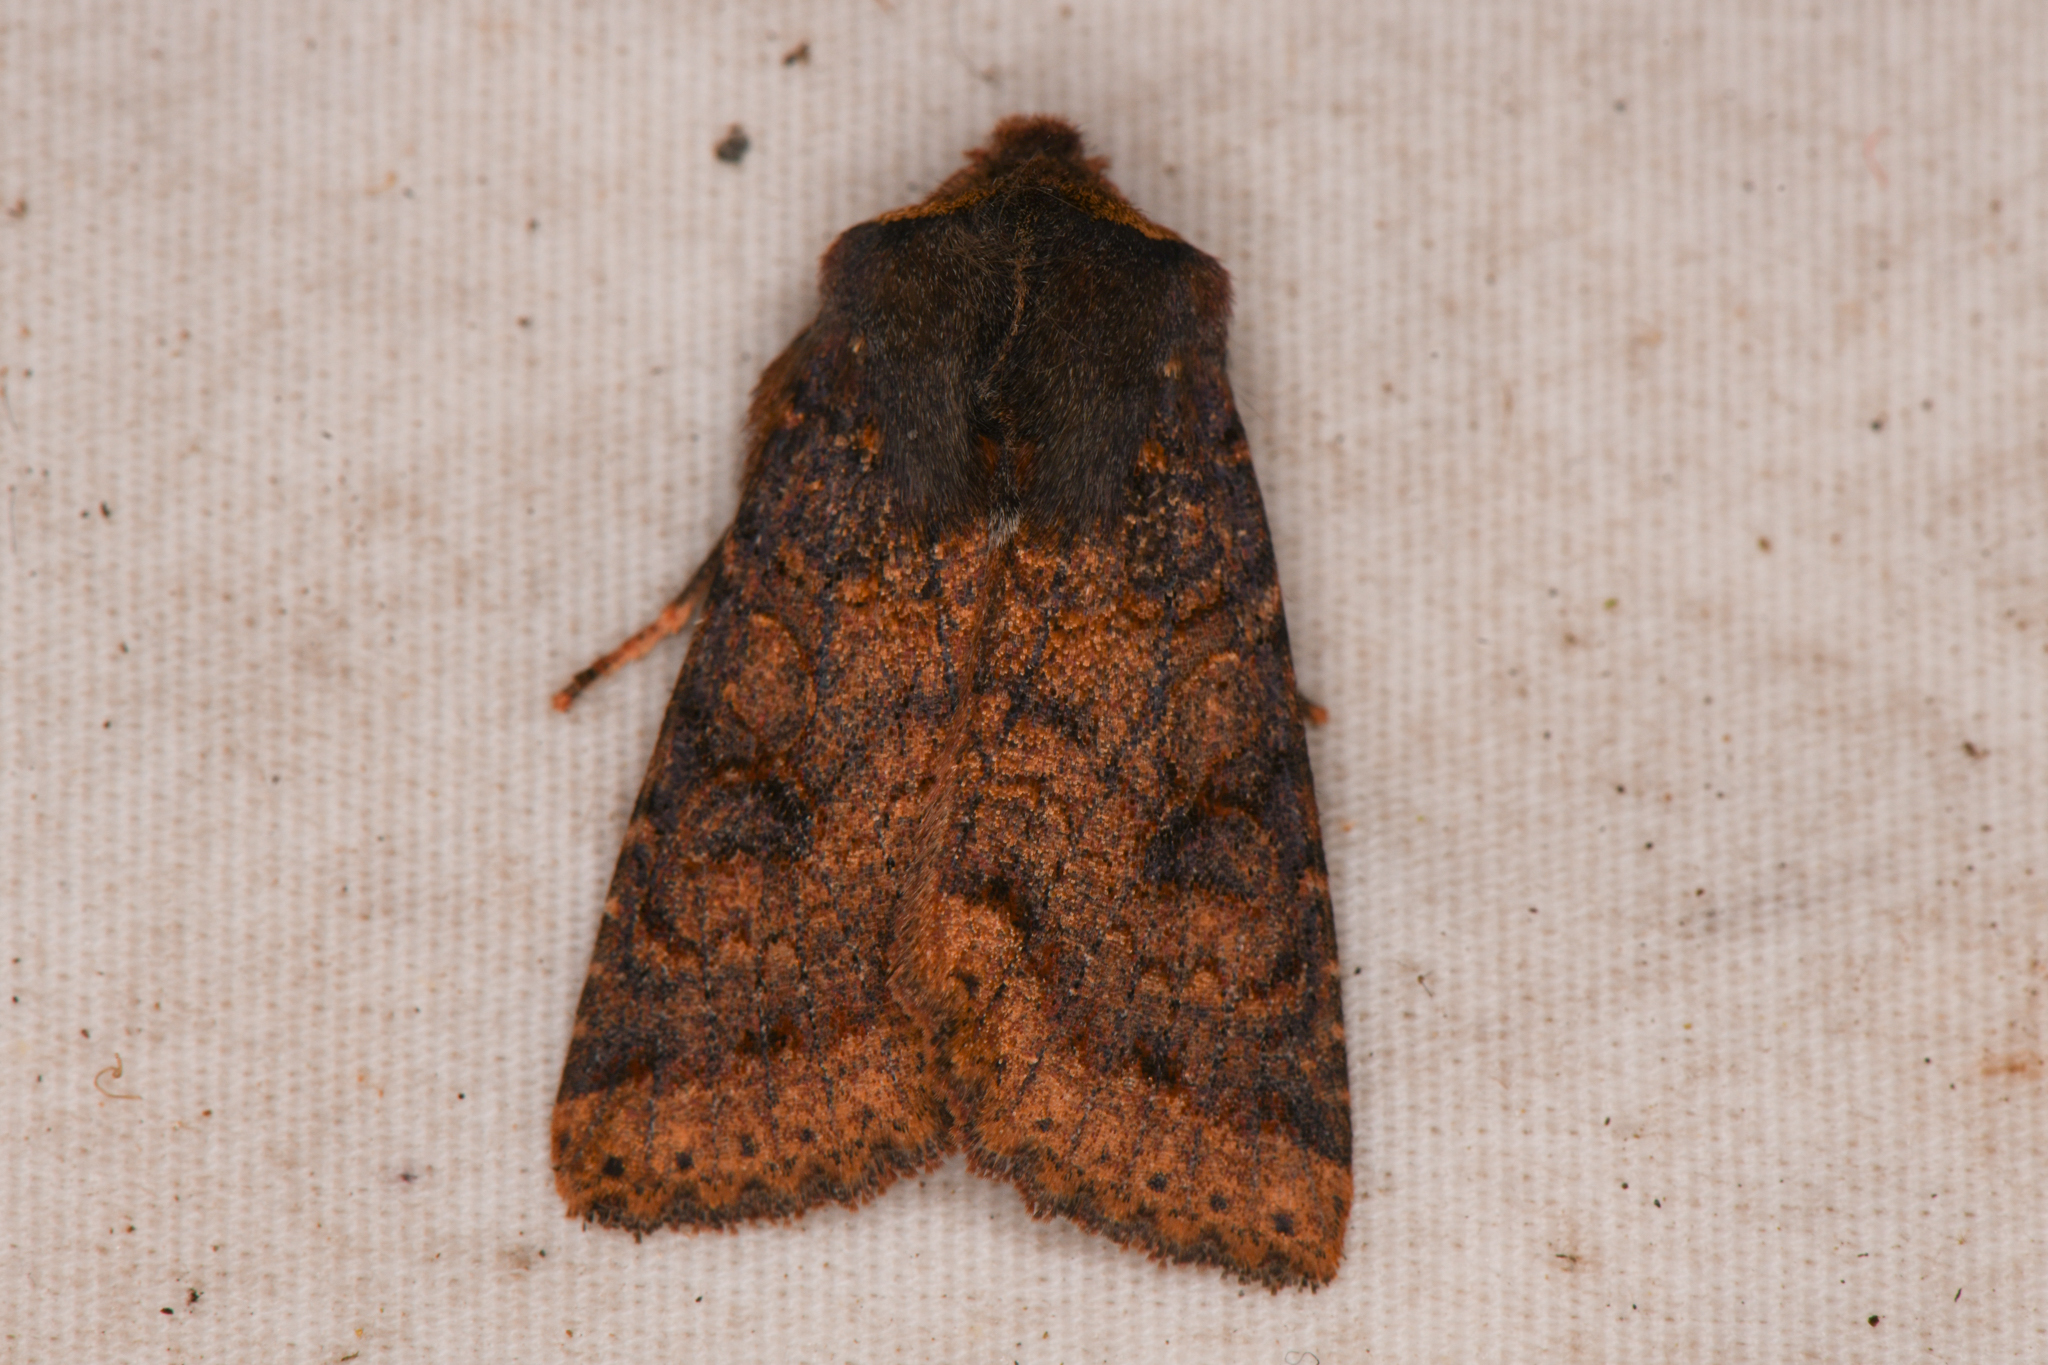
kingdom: Animalia
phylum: Arthropoda
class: Insecta
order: Lepidoptera
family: Noctuidae
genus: Orthosia
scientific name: Orthosia praeses
